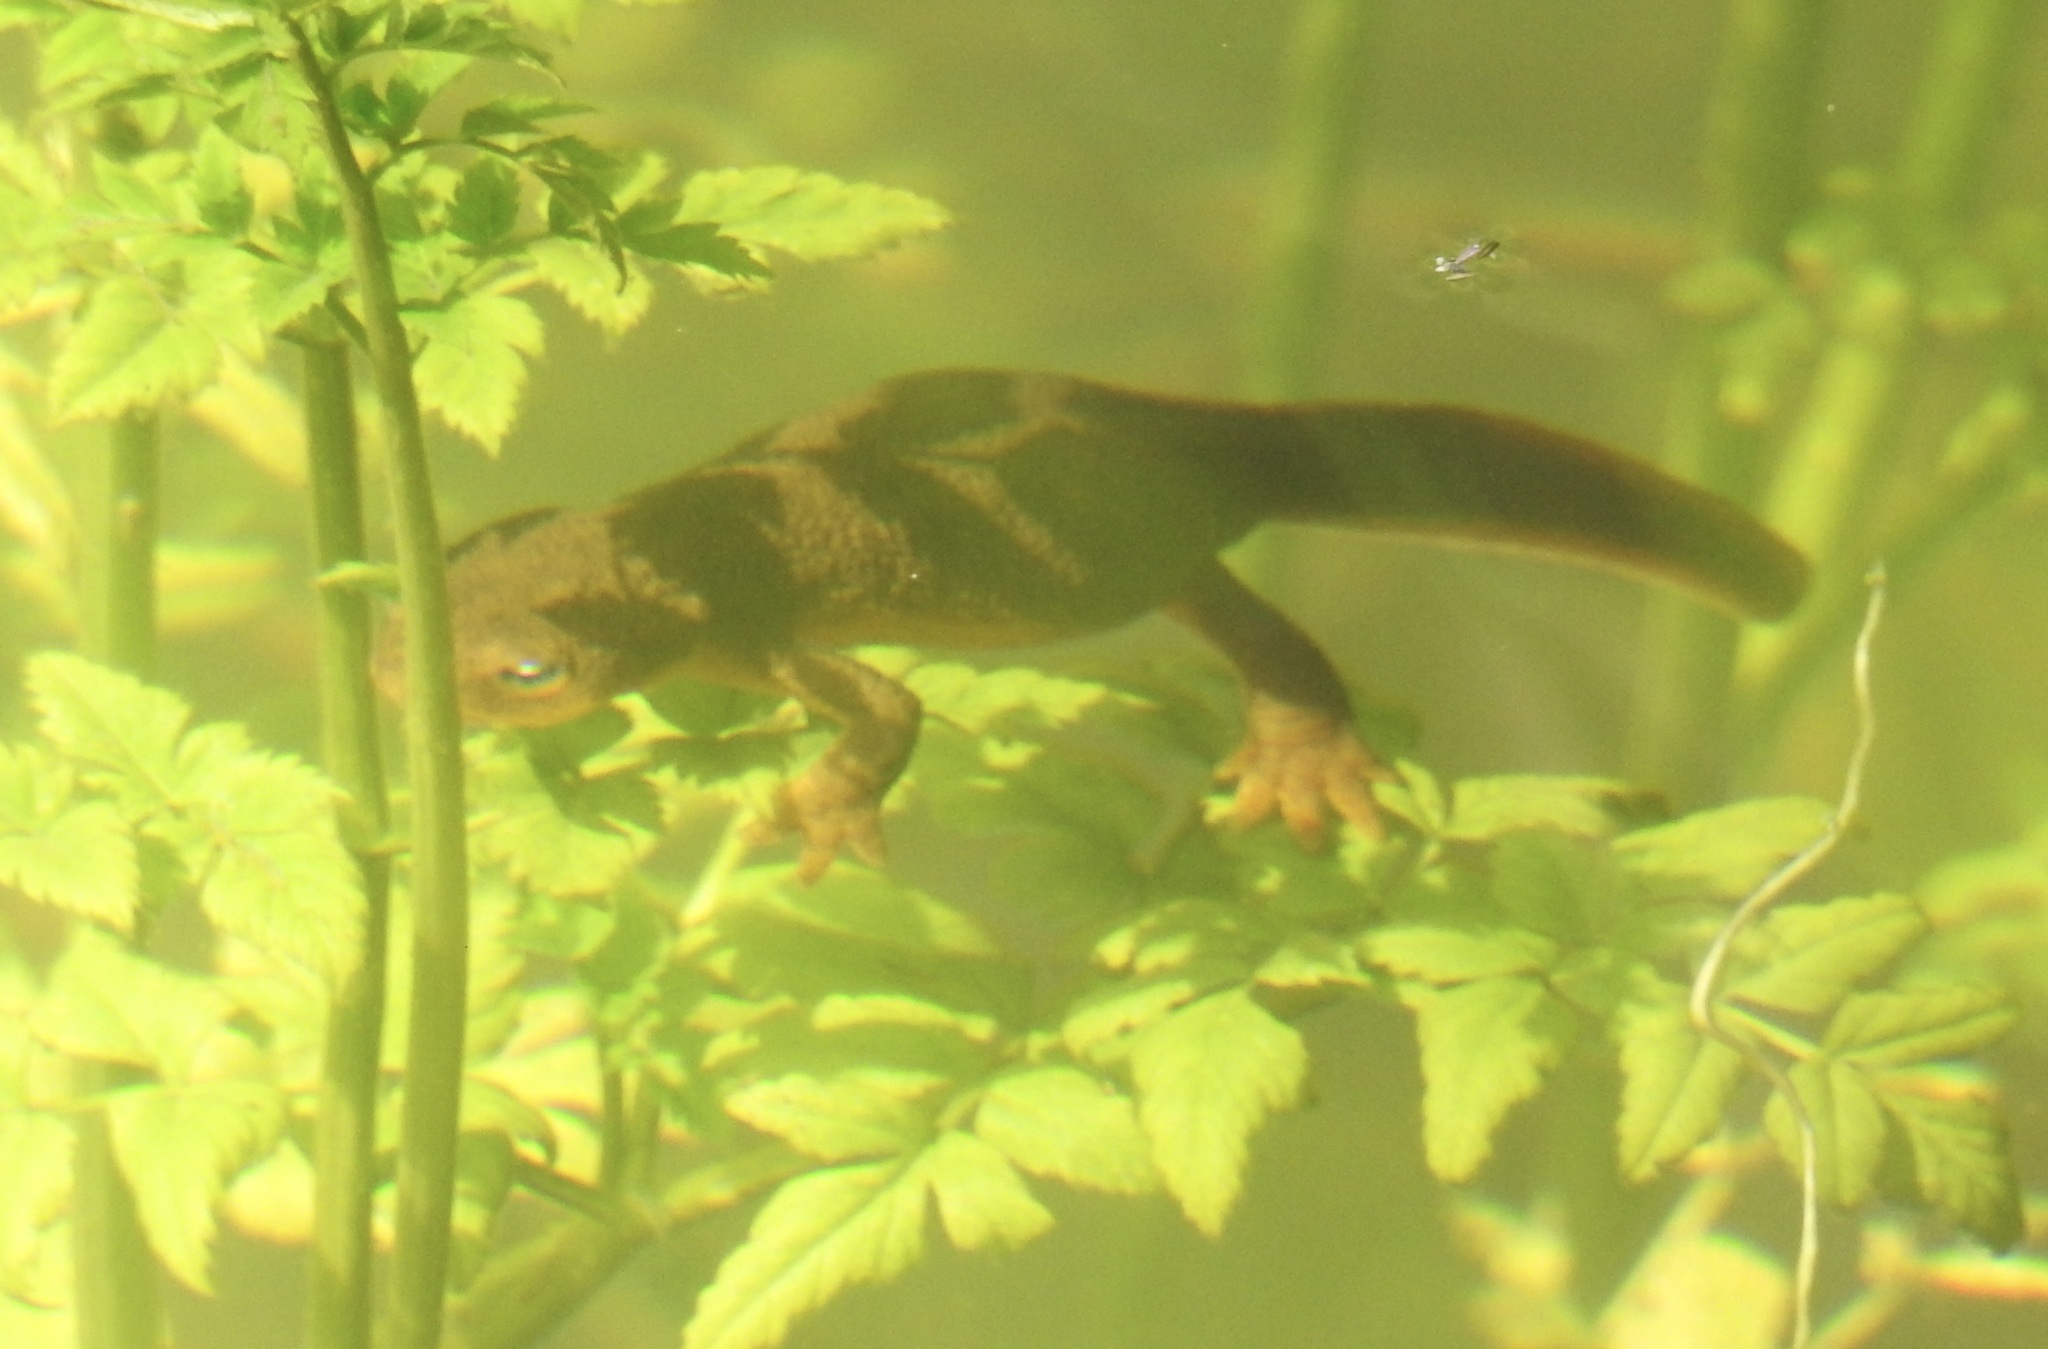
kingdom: Animalia
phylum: Chordata
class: Amphibia
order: Caudata
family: Salamandridae
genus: Taricha
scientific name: Taricha granulosa
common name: Roughskin newt
